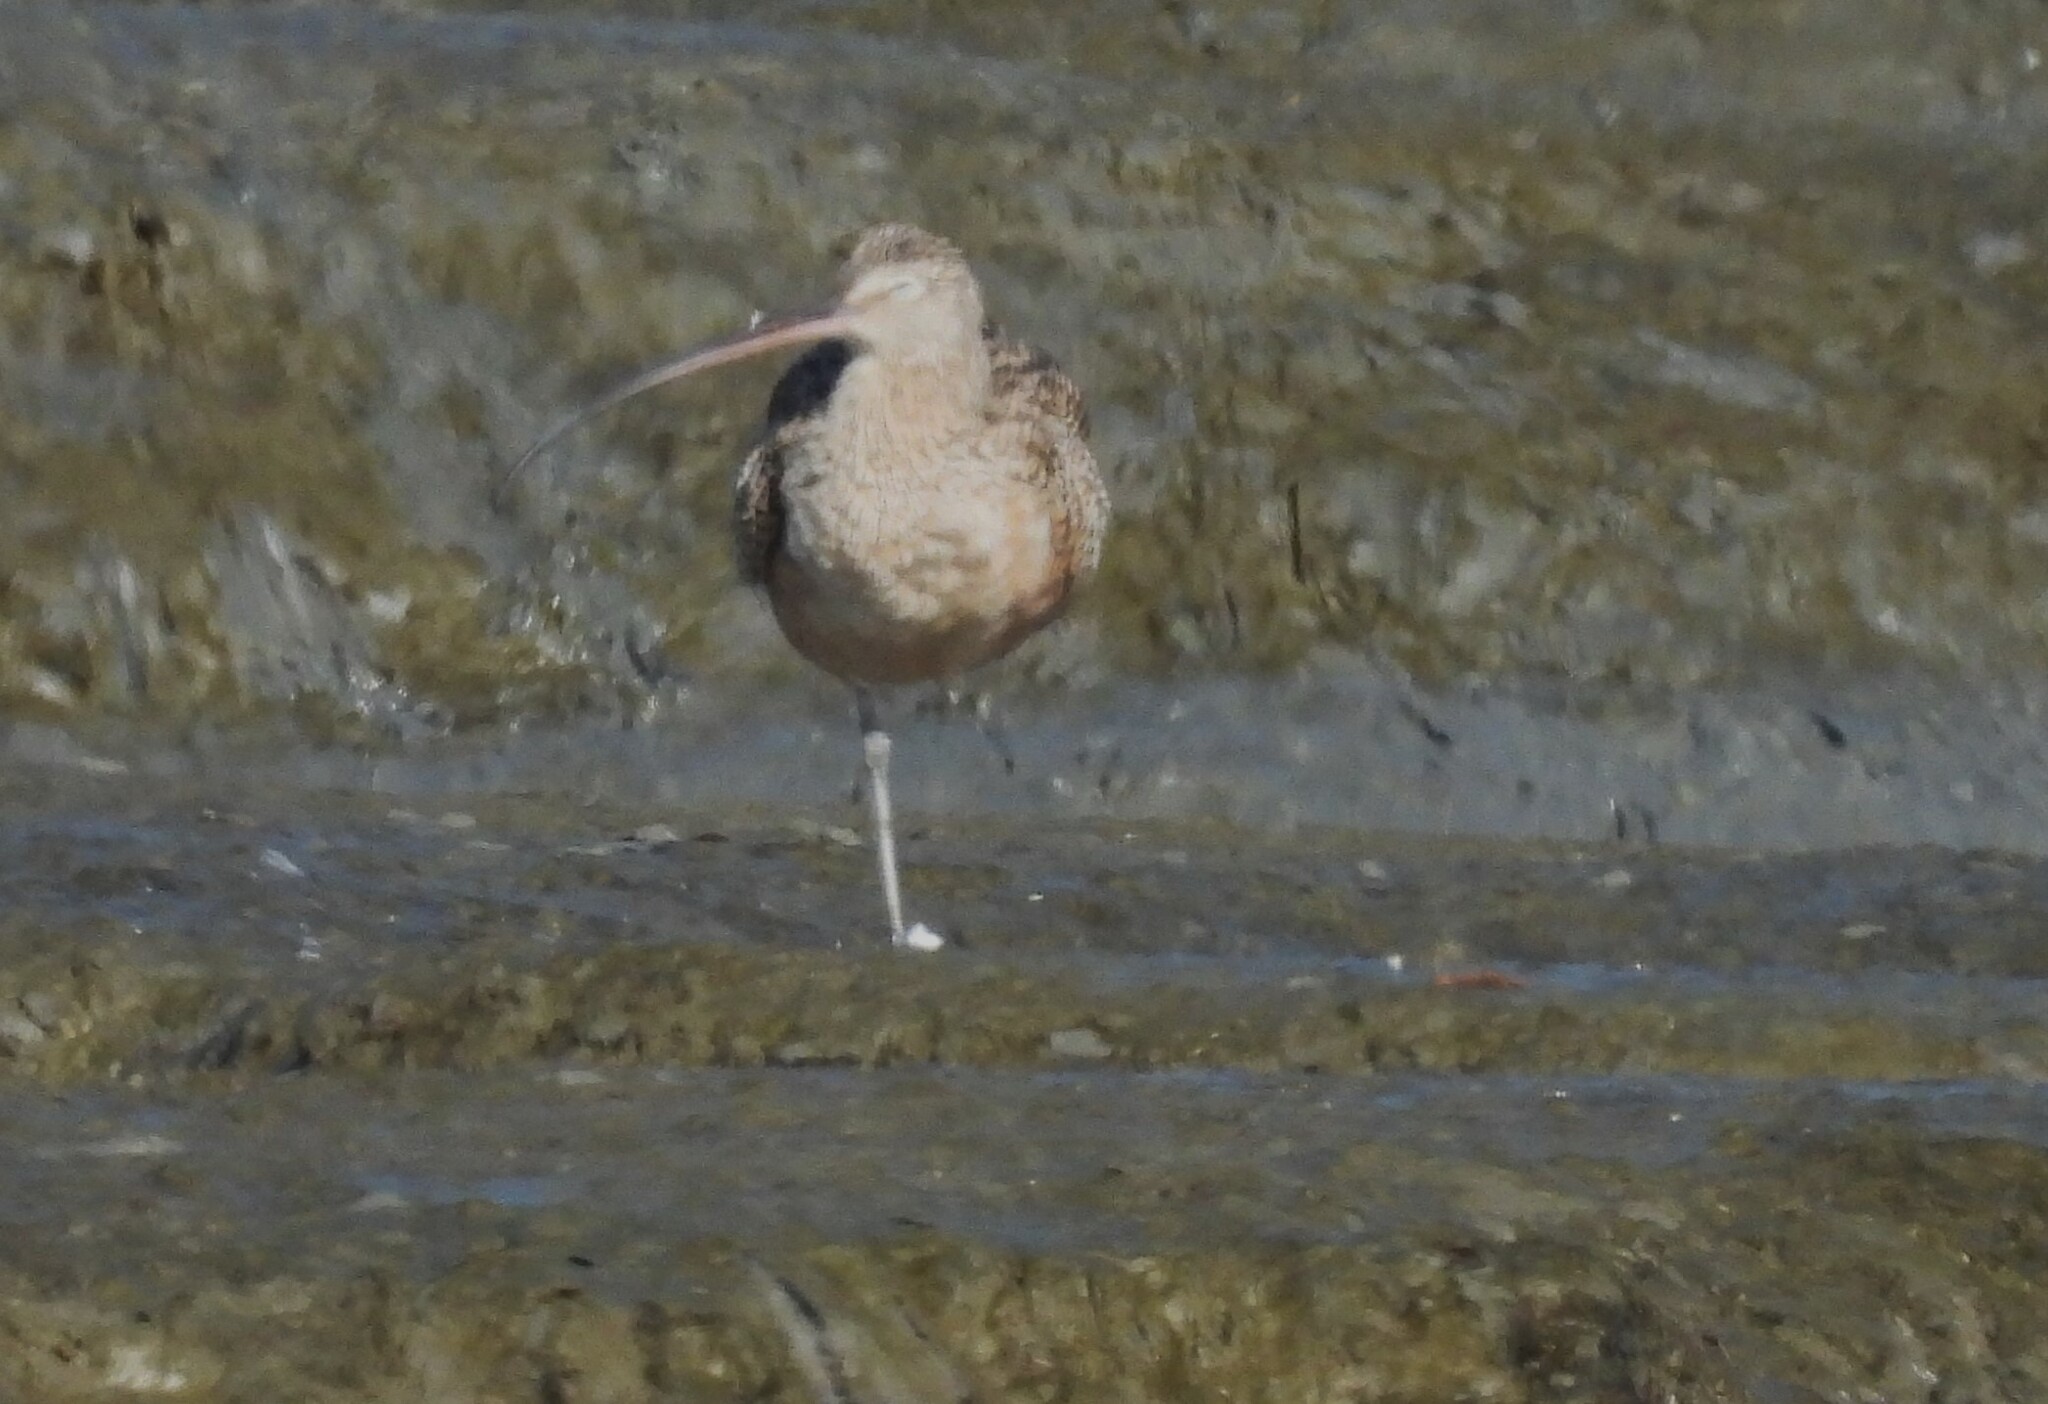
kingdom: Animalia
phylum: Chordata
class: Aves
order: Charadriiformes
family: Scolopacidae
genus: Numenius
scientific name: Numenius americanus
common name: Long-billed curlew
